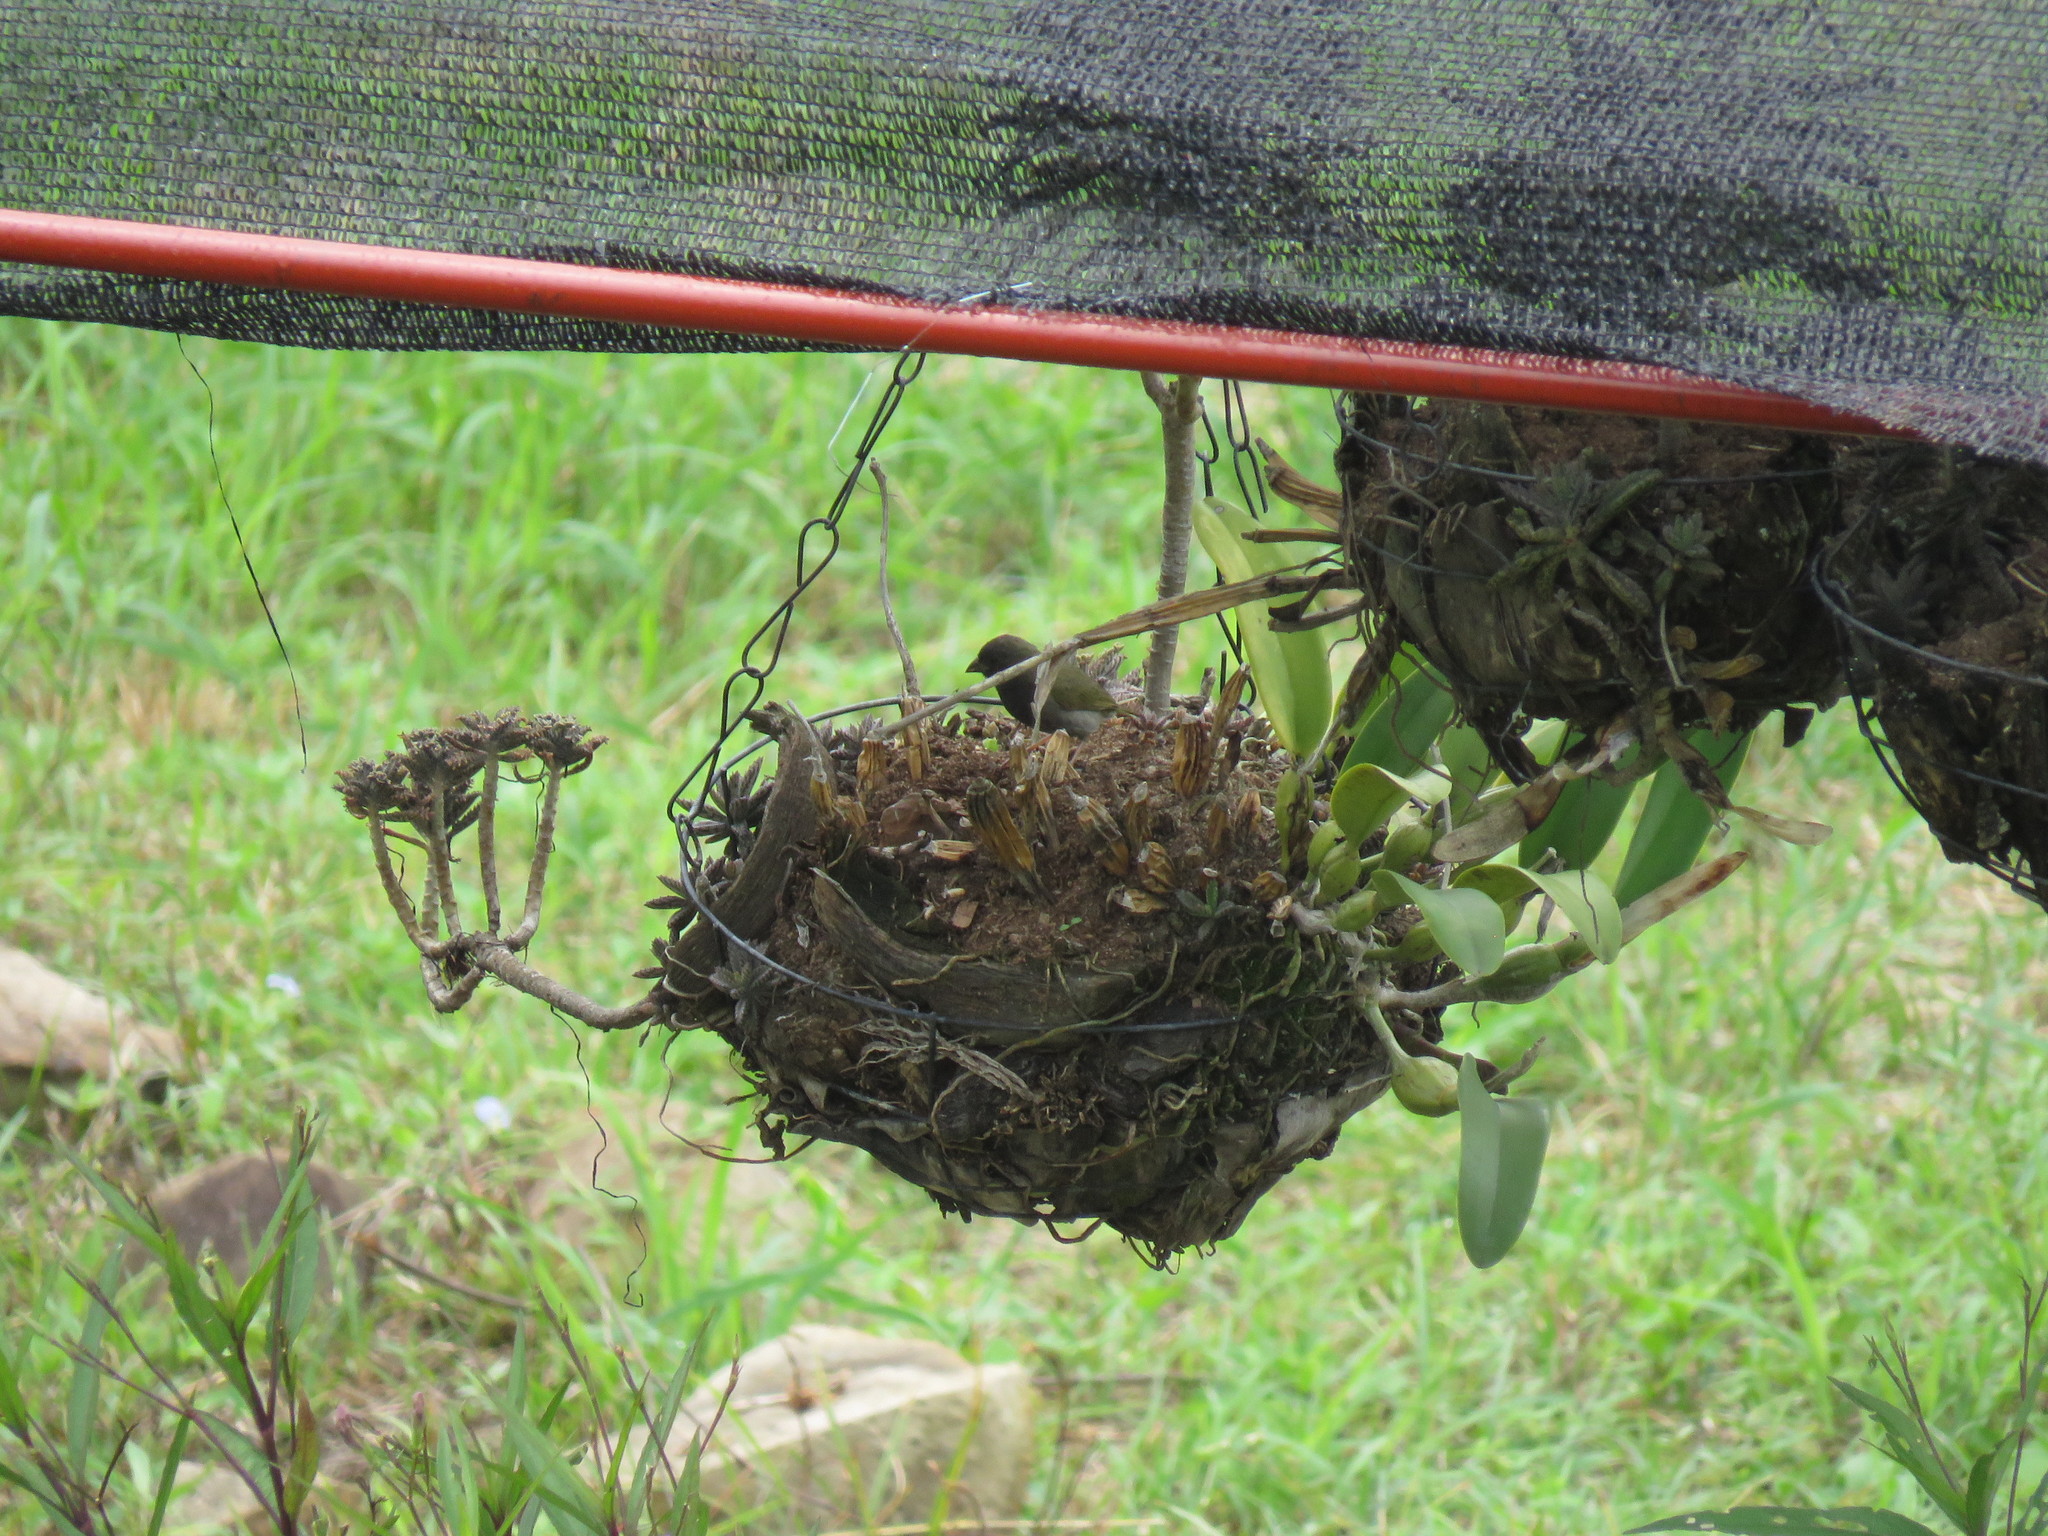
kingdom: Animalia
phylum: Chordata
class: Aves
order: Passeriformes
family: Thraupidae
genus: Melanospiza
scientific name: Melanospiza bicolor
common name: Black-faced grassquit
